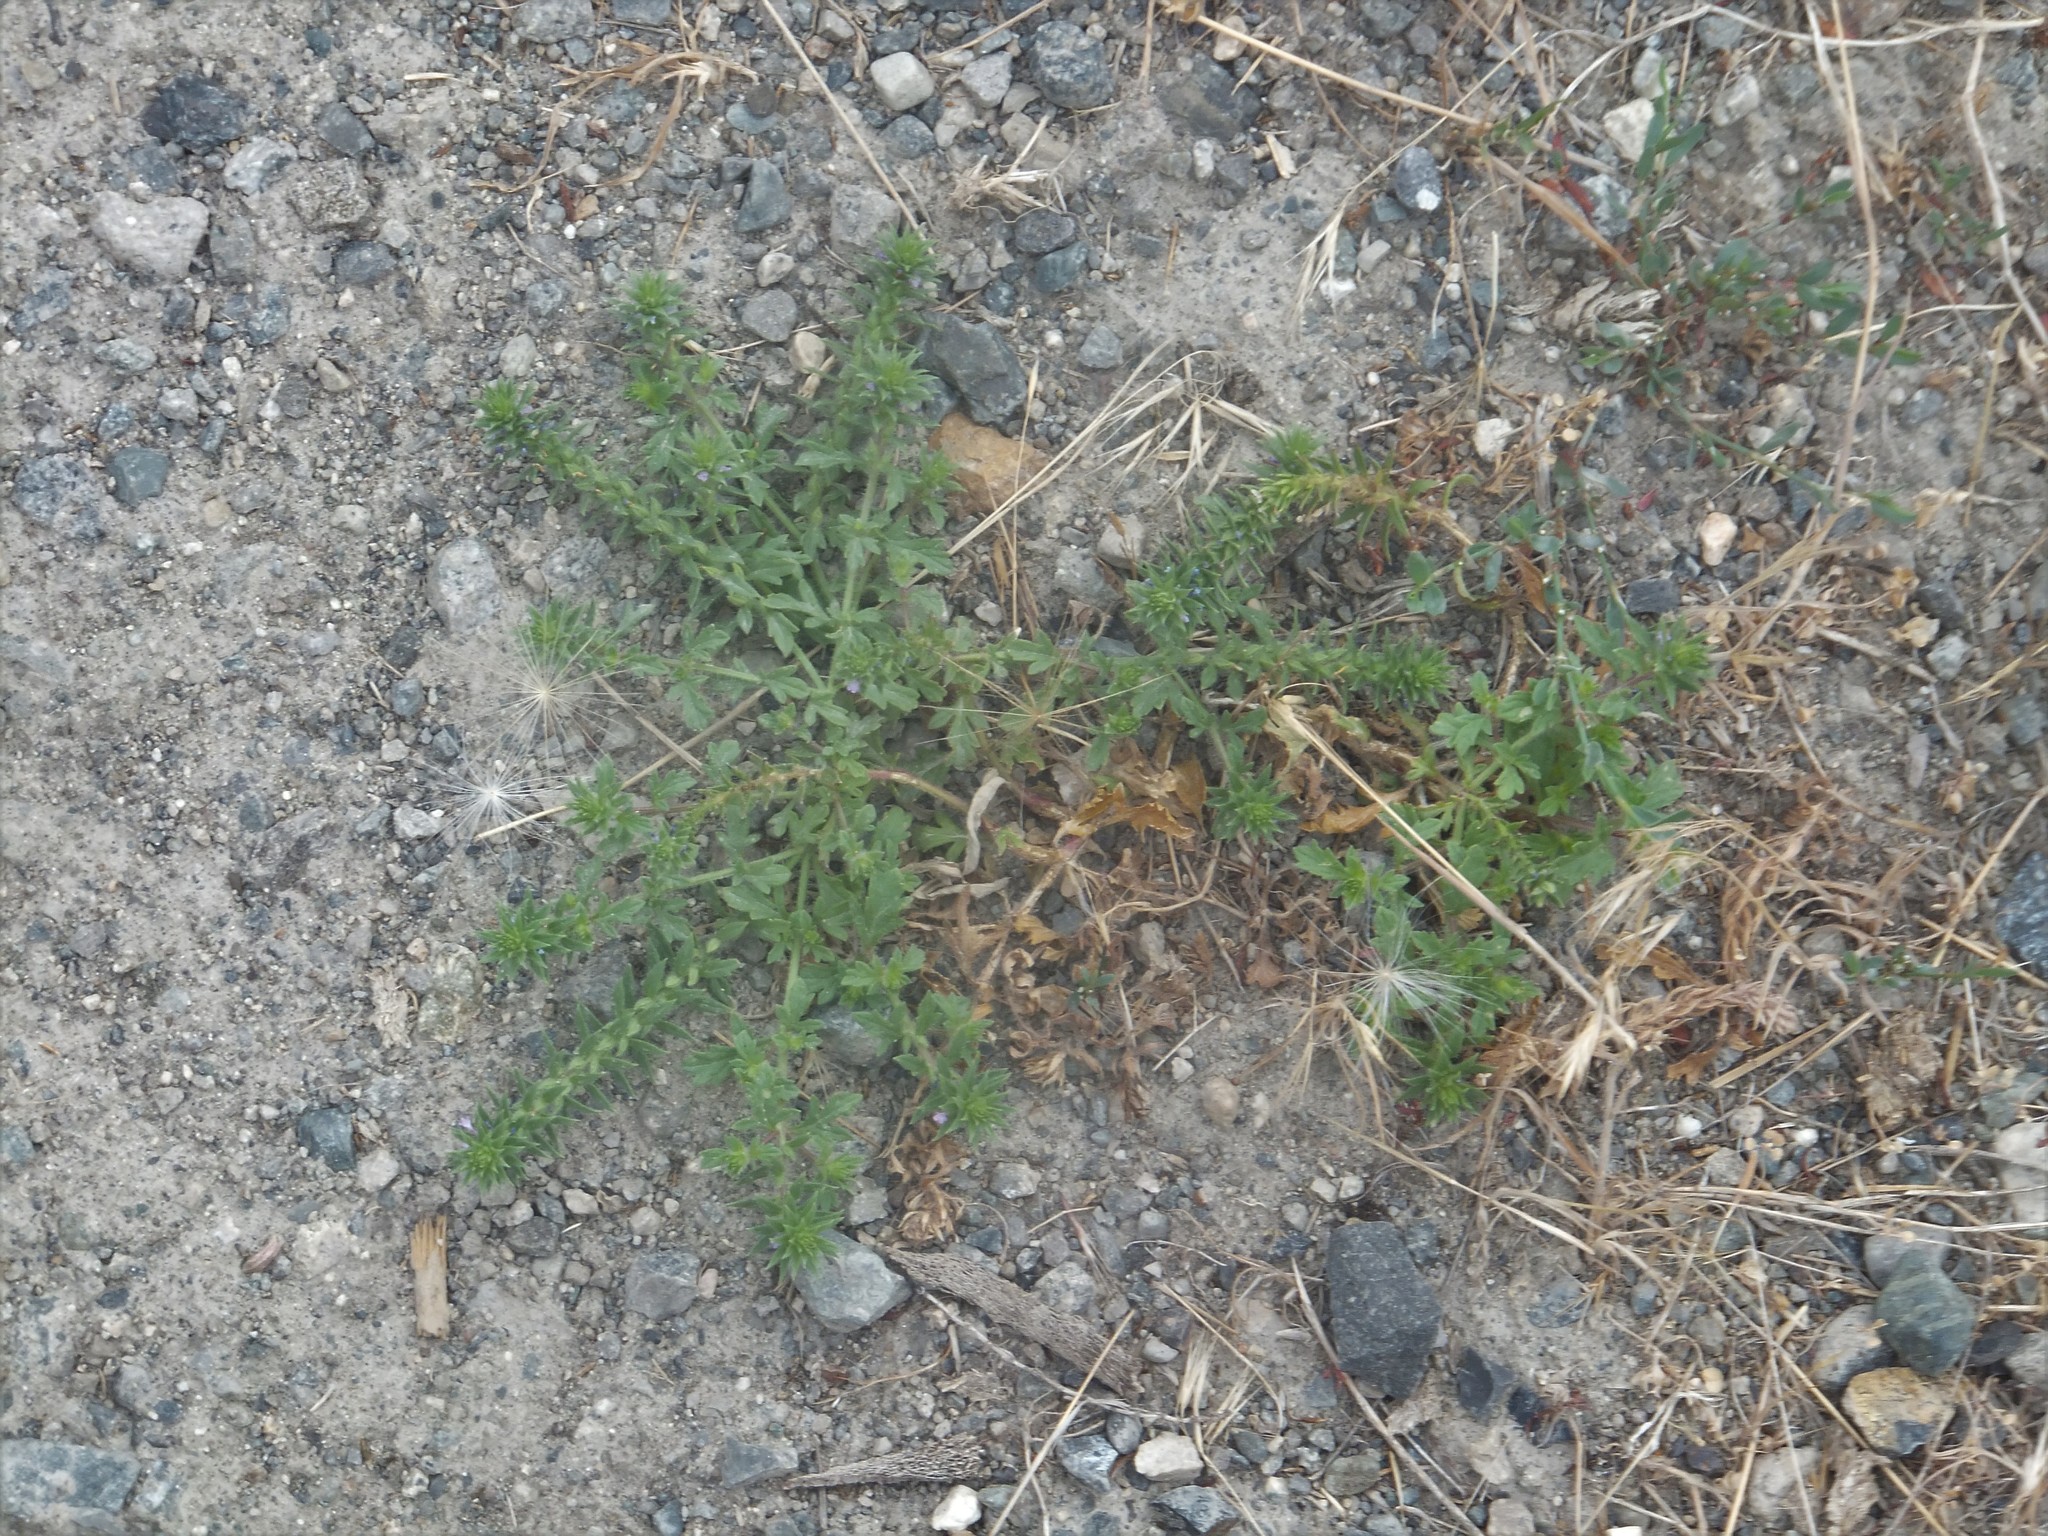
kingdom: Plantae
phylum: Tracheophyta
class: Magnoliopsida
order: Lamiales
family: Verbenaceae
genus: Verbena
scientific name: Verbena bracteata
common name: Bracted vervain
